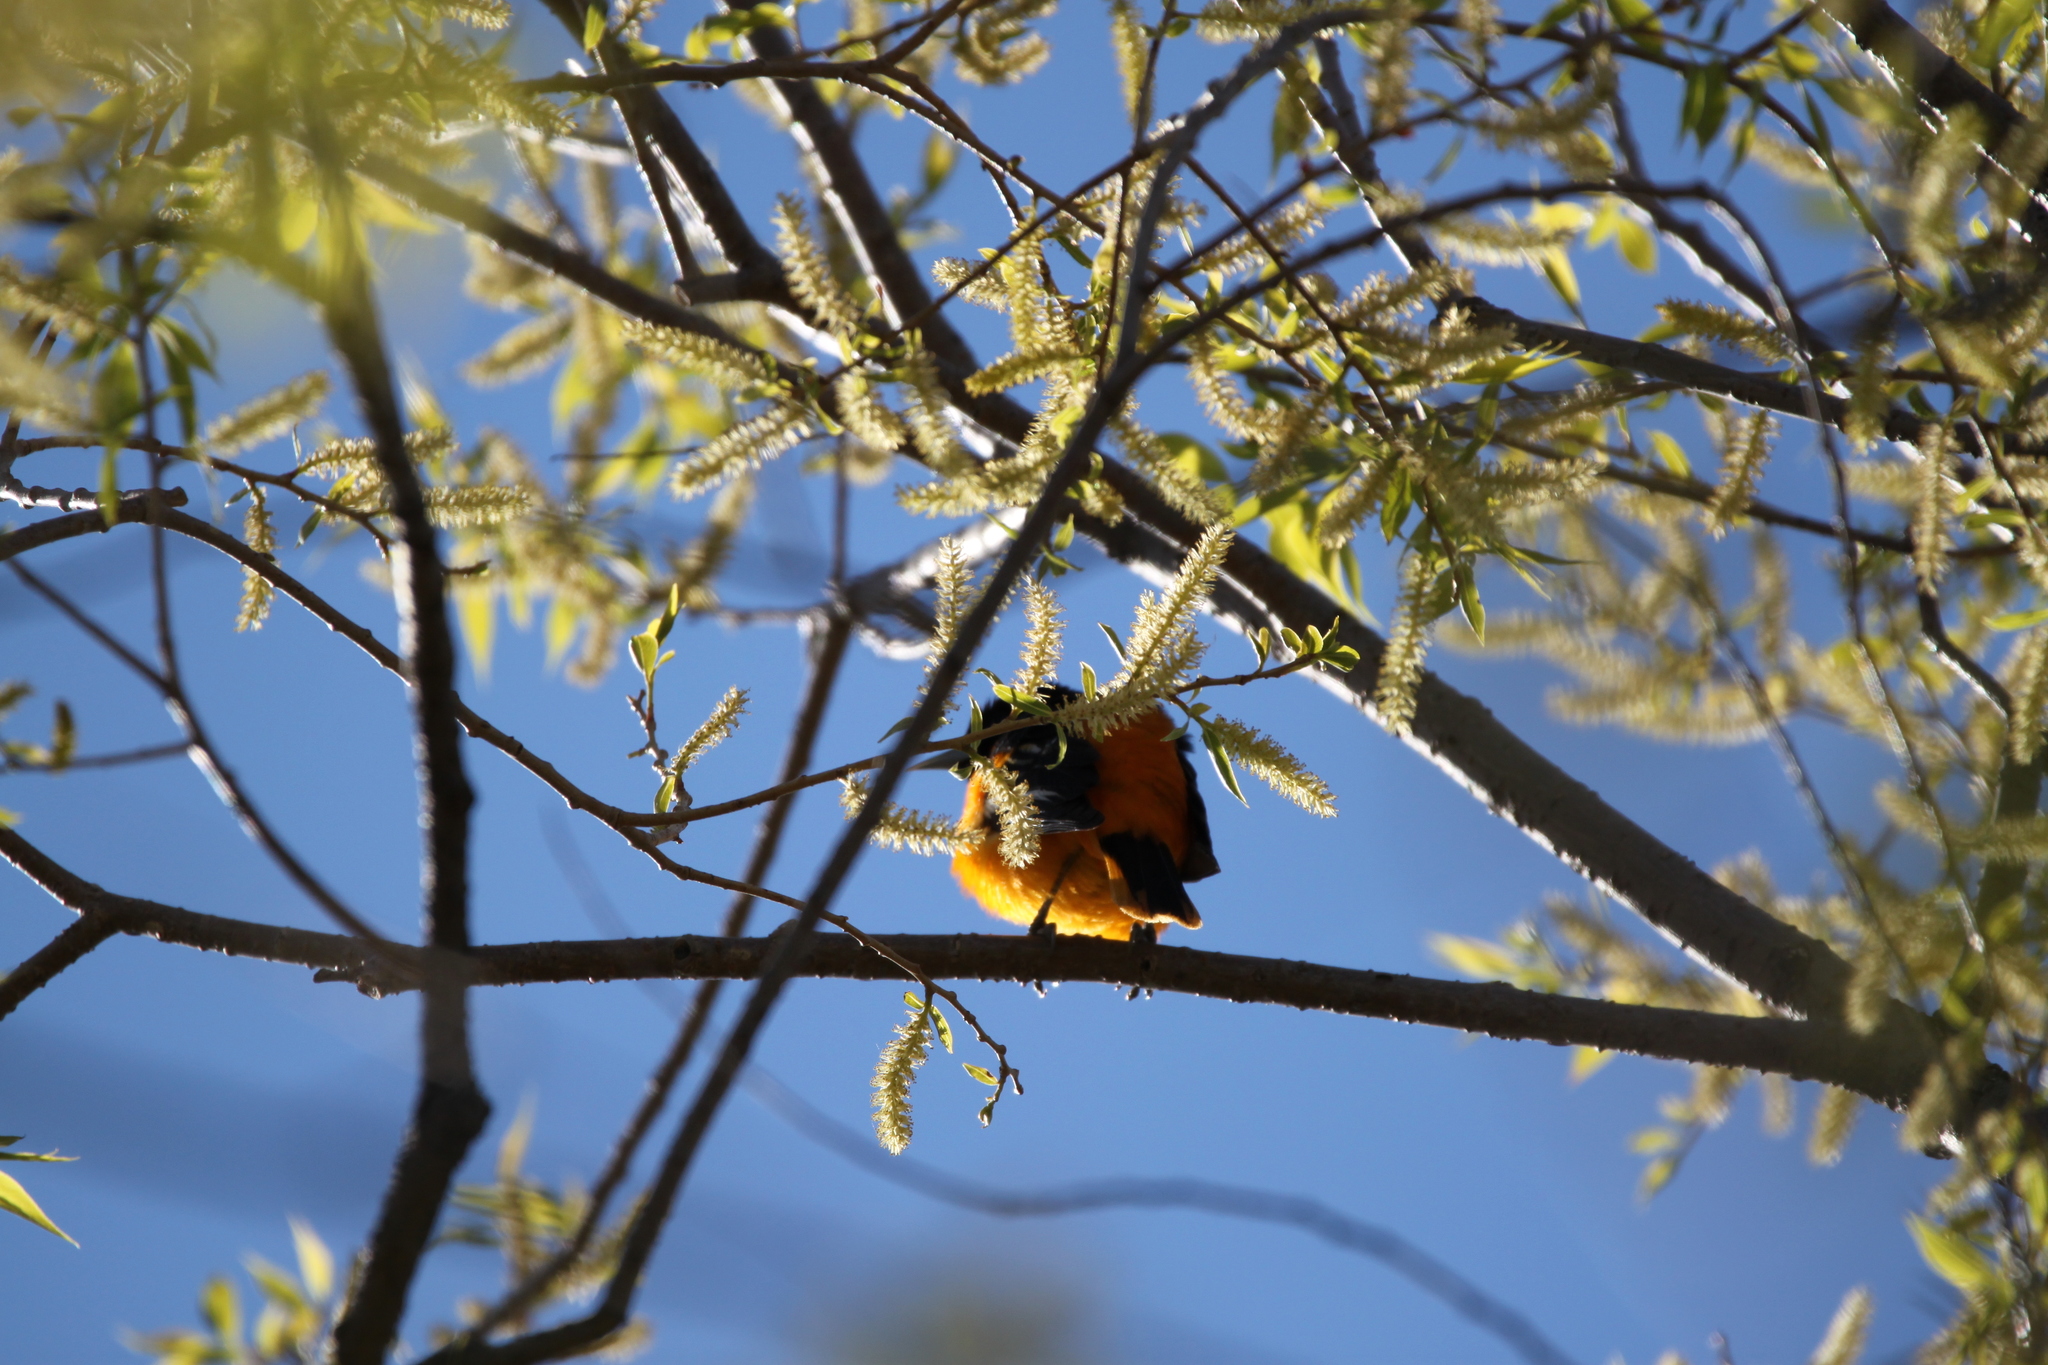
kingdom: Animalia
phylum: Chordata
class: Aves
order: Passeriformes
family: Icteridae
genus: Icterus
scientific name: Icterus galbula
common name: Baltimore oriole
